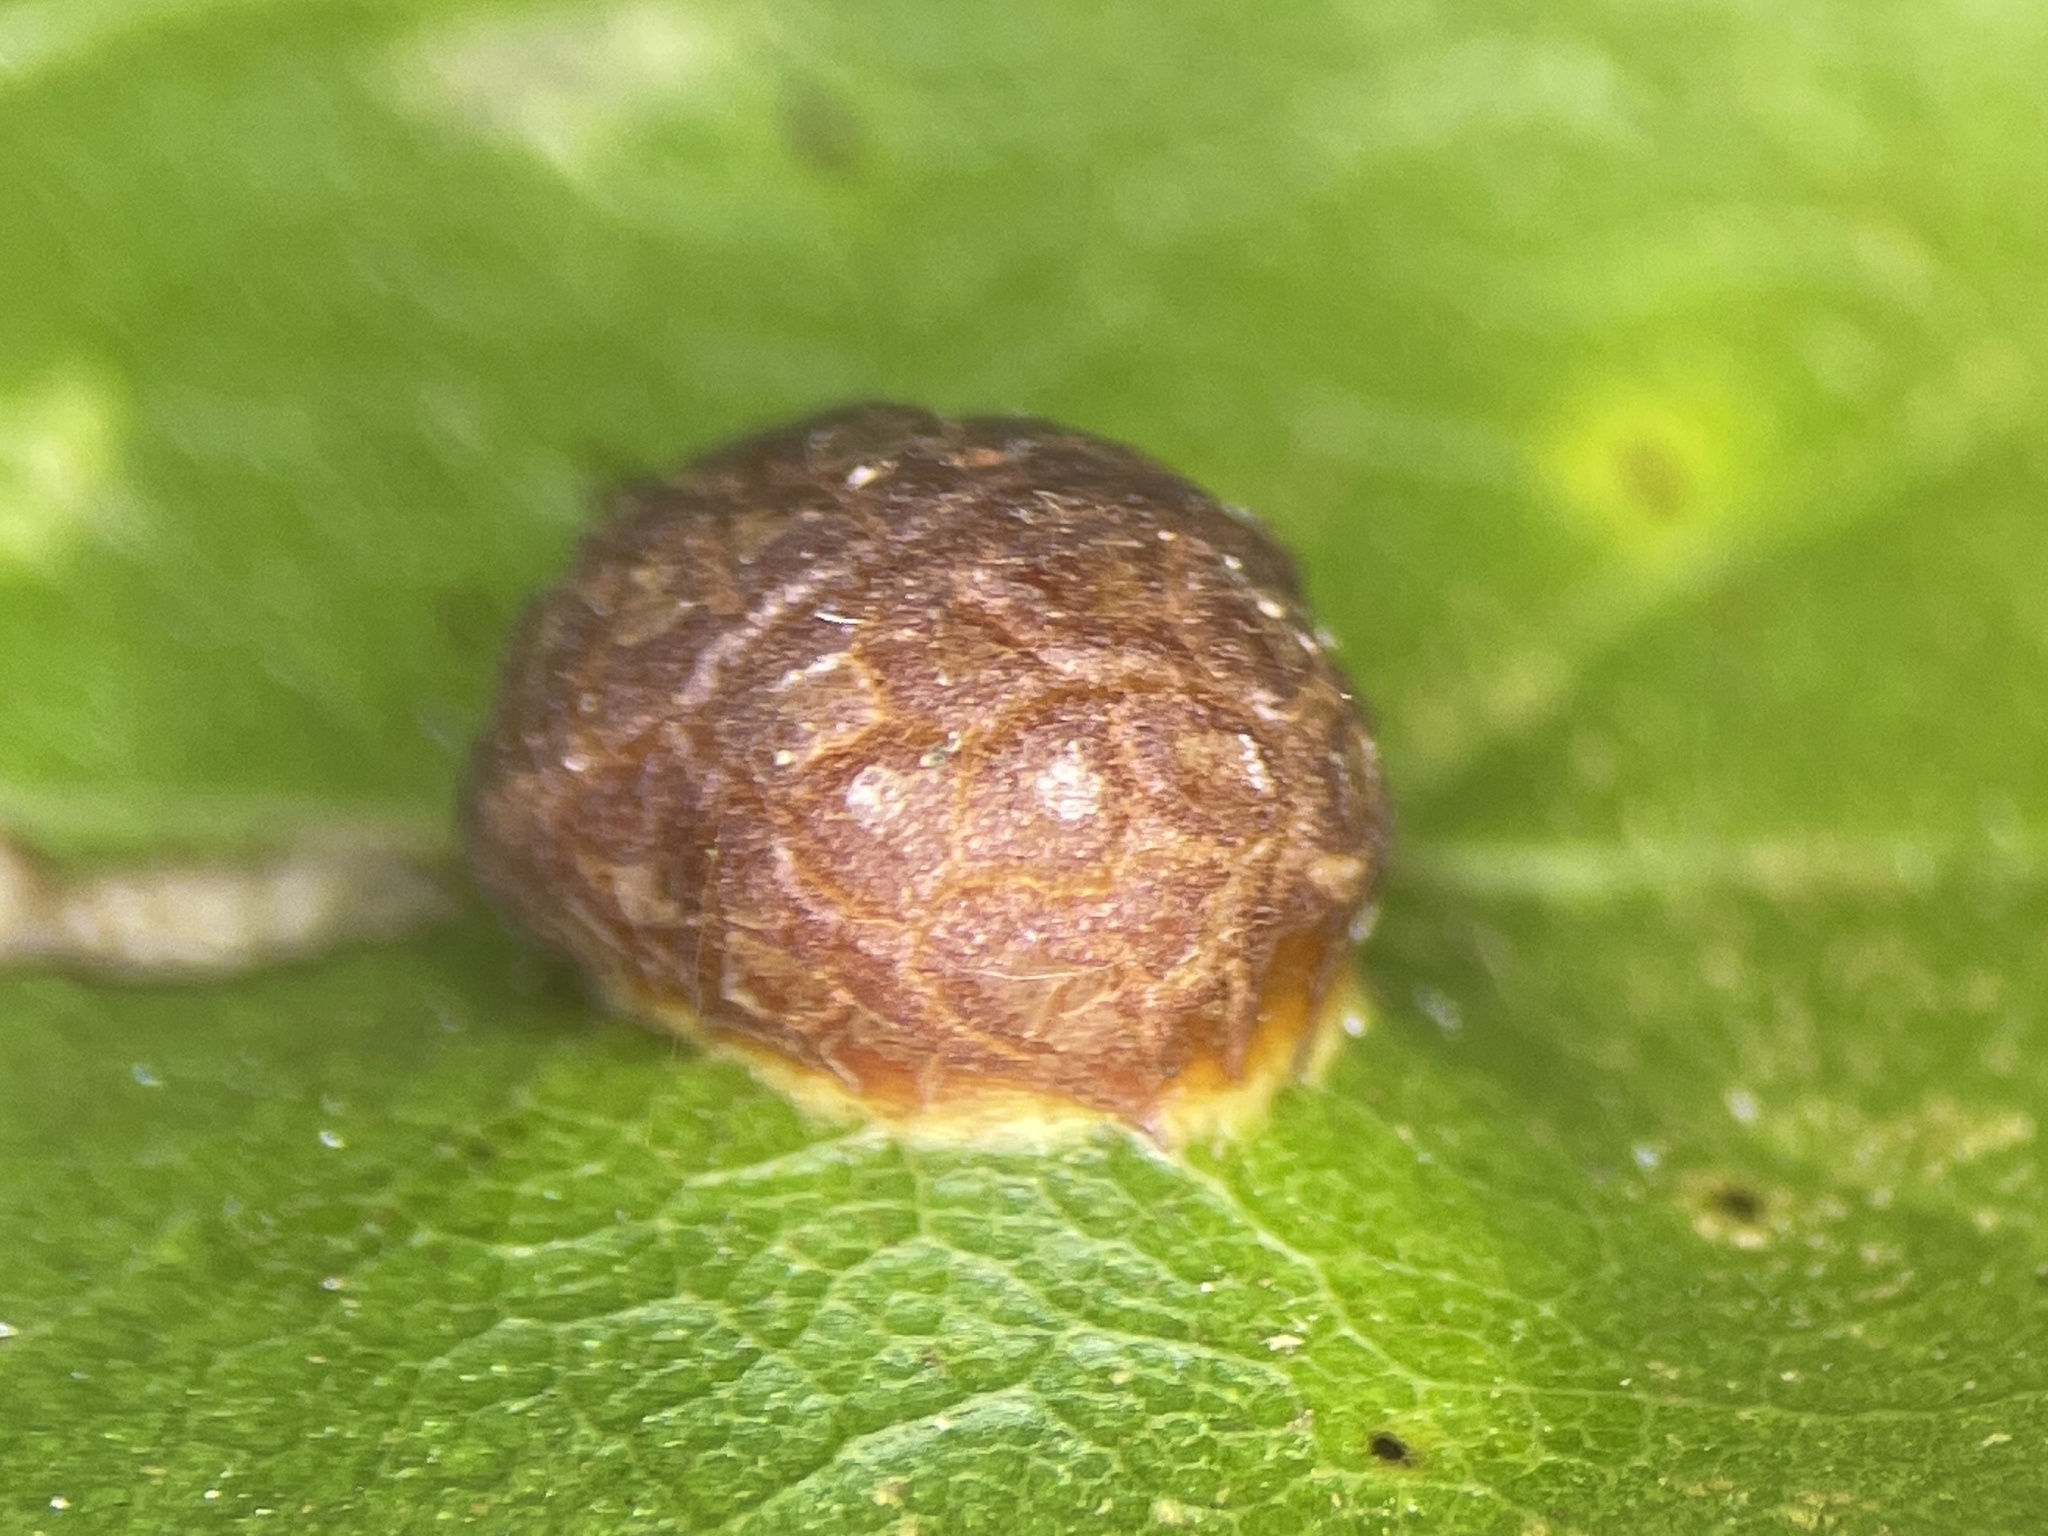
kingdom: Animalia
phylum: Arthropoda
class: Insecta
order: Diptera
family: Cecidomyiidae
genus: Polystepha
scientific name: Polystepha pilulae
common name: Oak leaf gall midge
